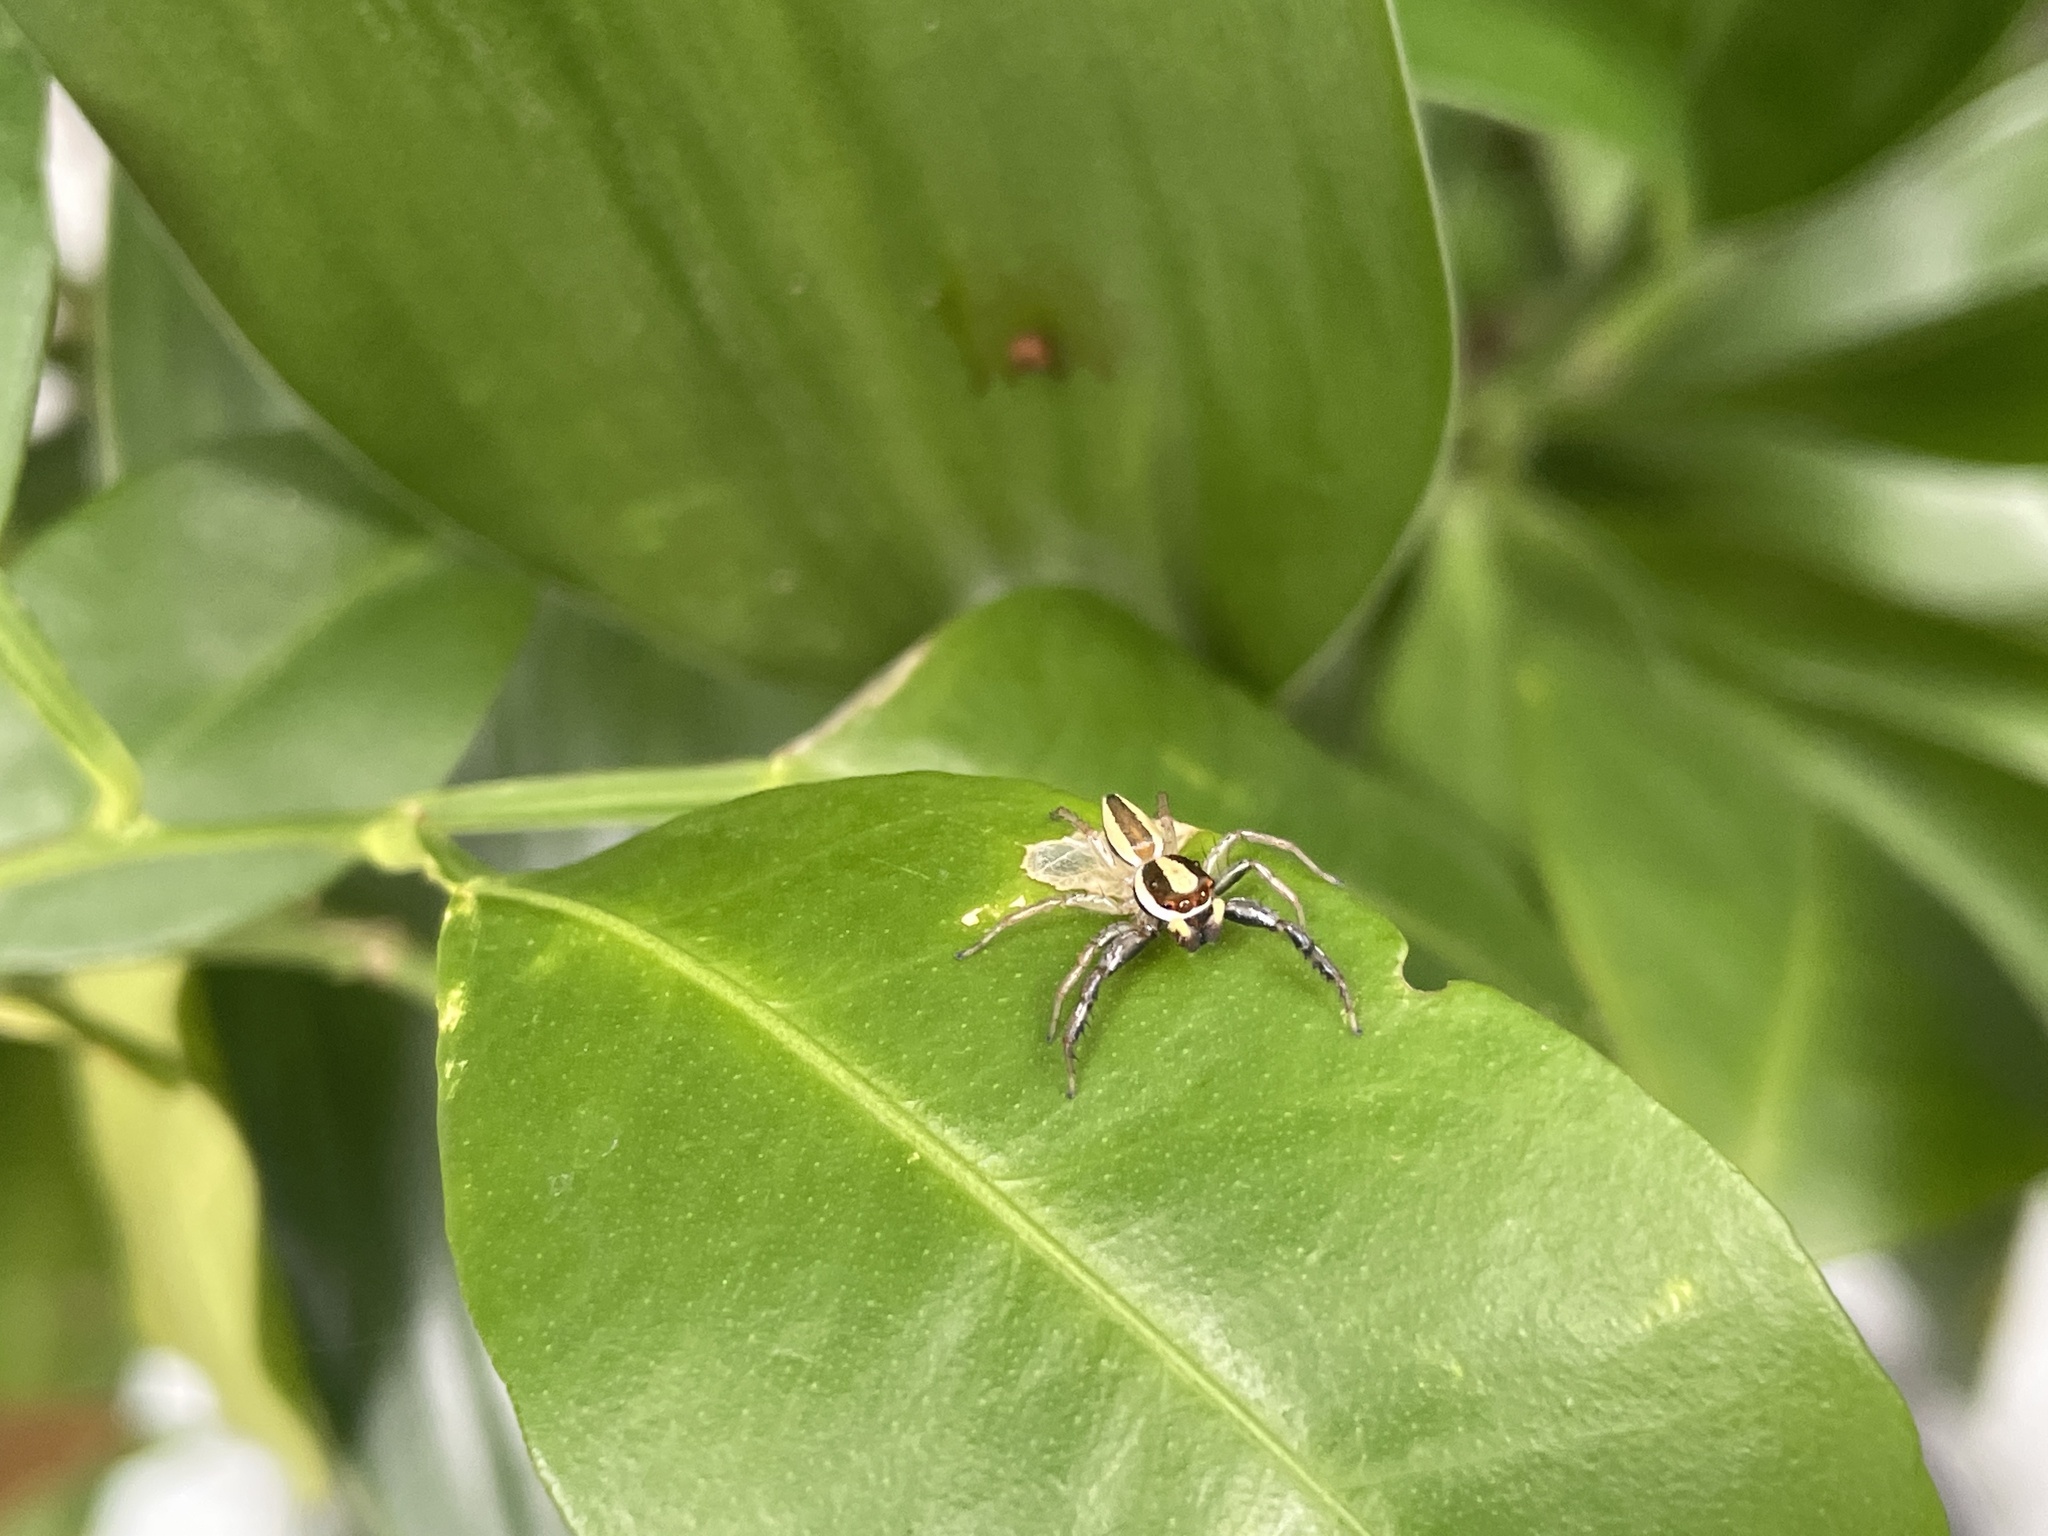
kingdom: Animalia
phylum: Arthropoda
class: Arachnida
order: Araneae
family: Salticidae
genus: Epocilla
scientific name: Epocilla blairei
